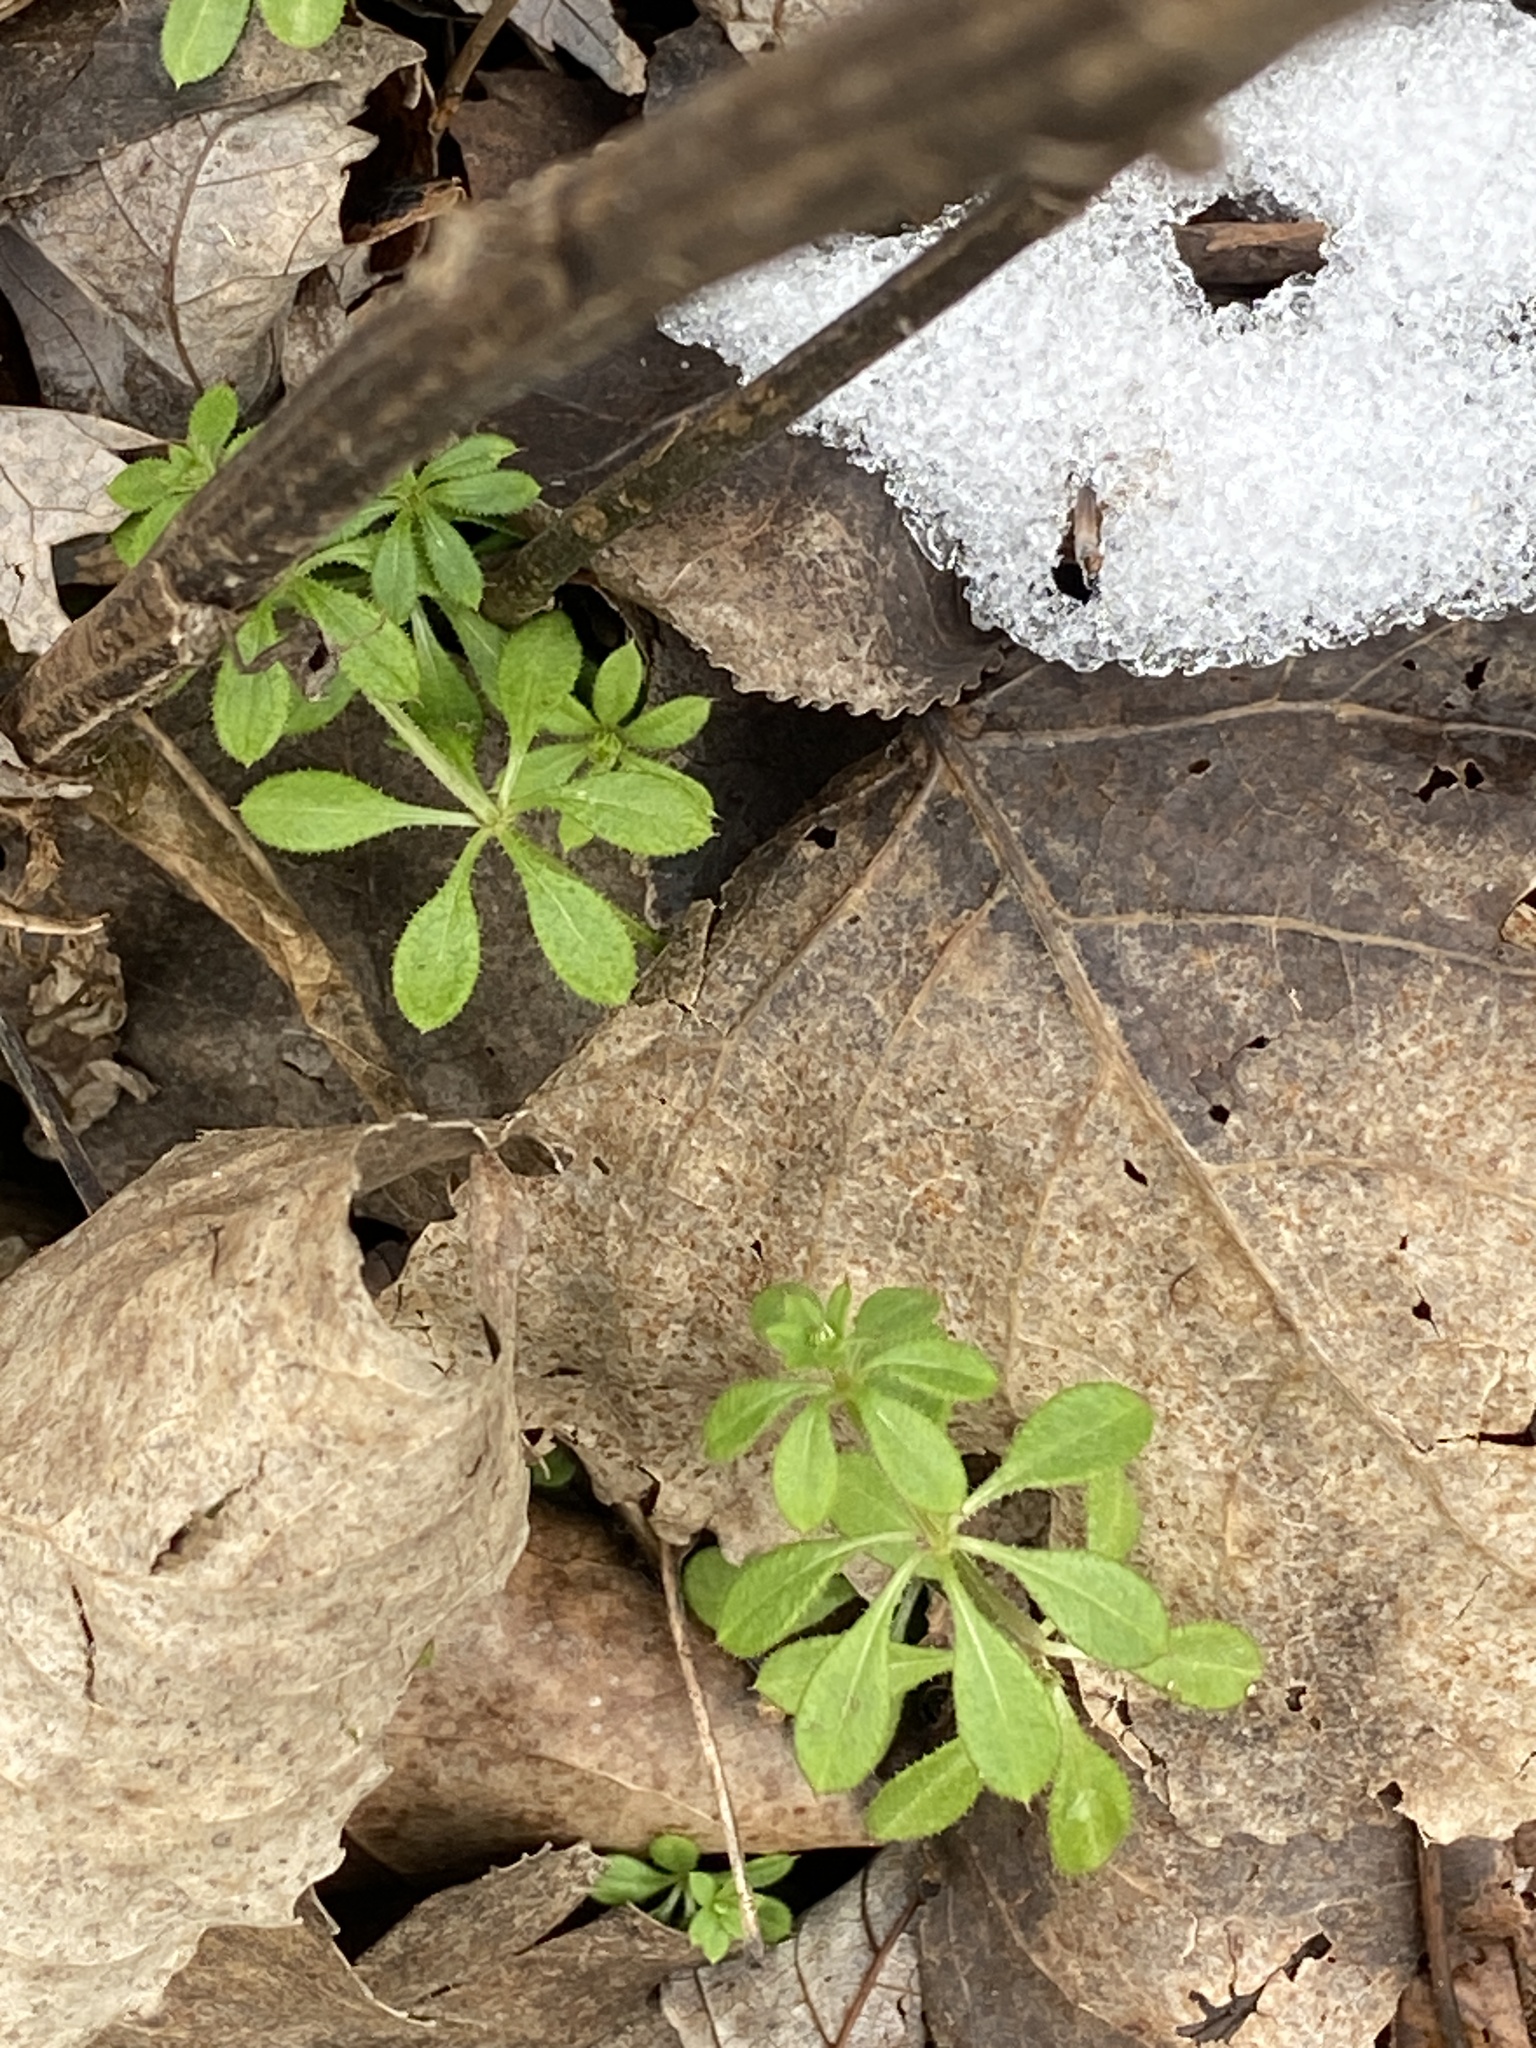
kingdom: Plantae
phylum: Tracheophyta
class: Magnoliopsida
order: Gentianales
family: Rubiaceae
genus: Galium
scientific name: Galium aparine
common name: Cleavers
